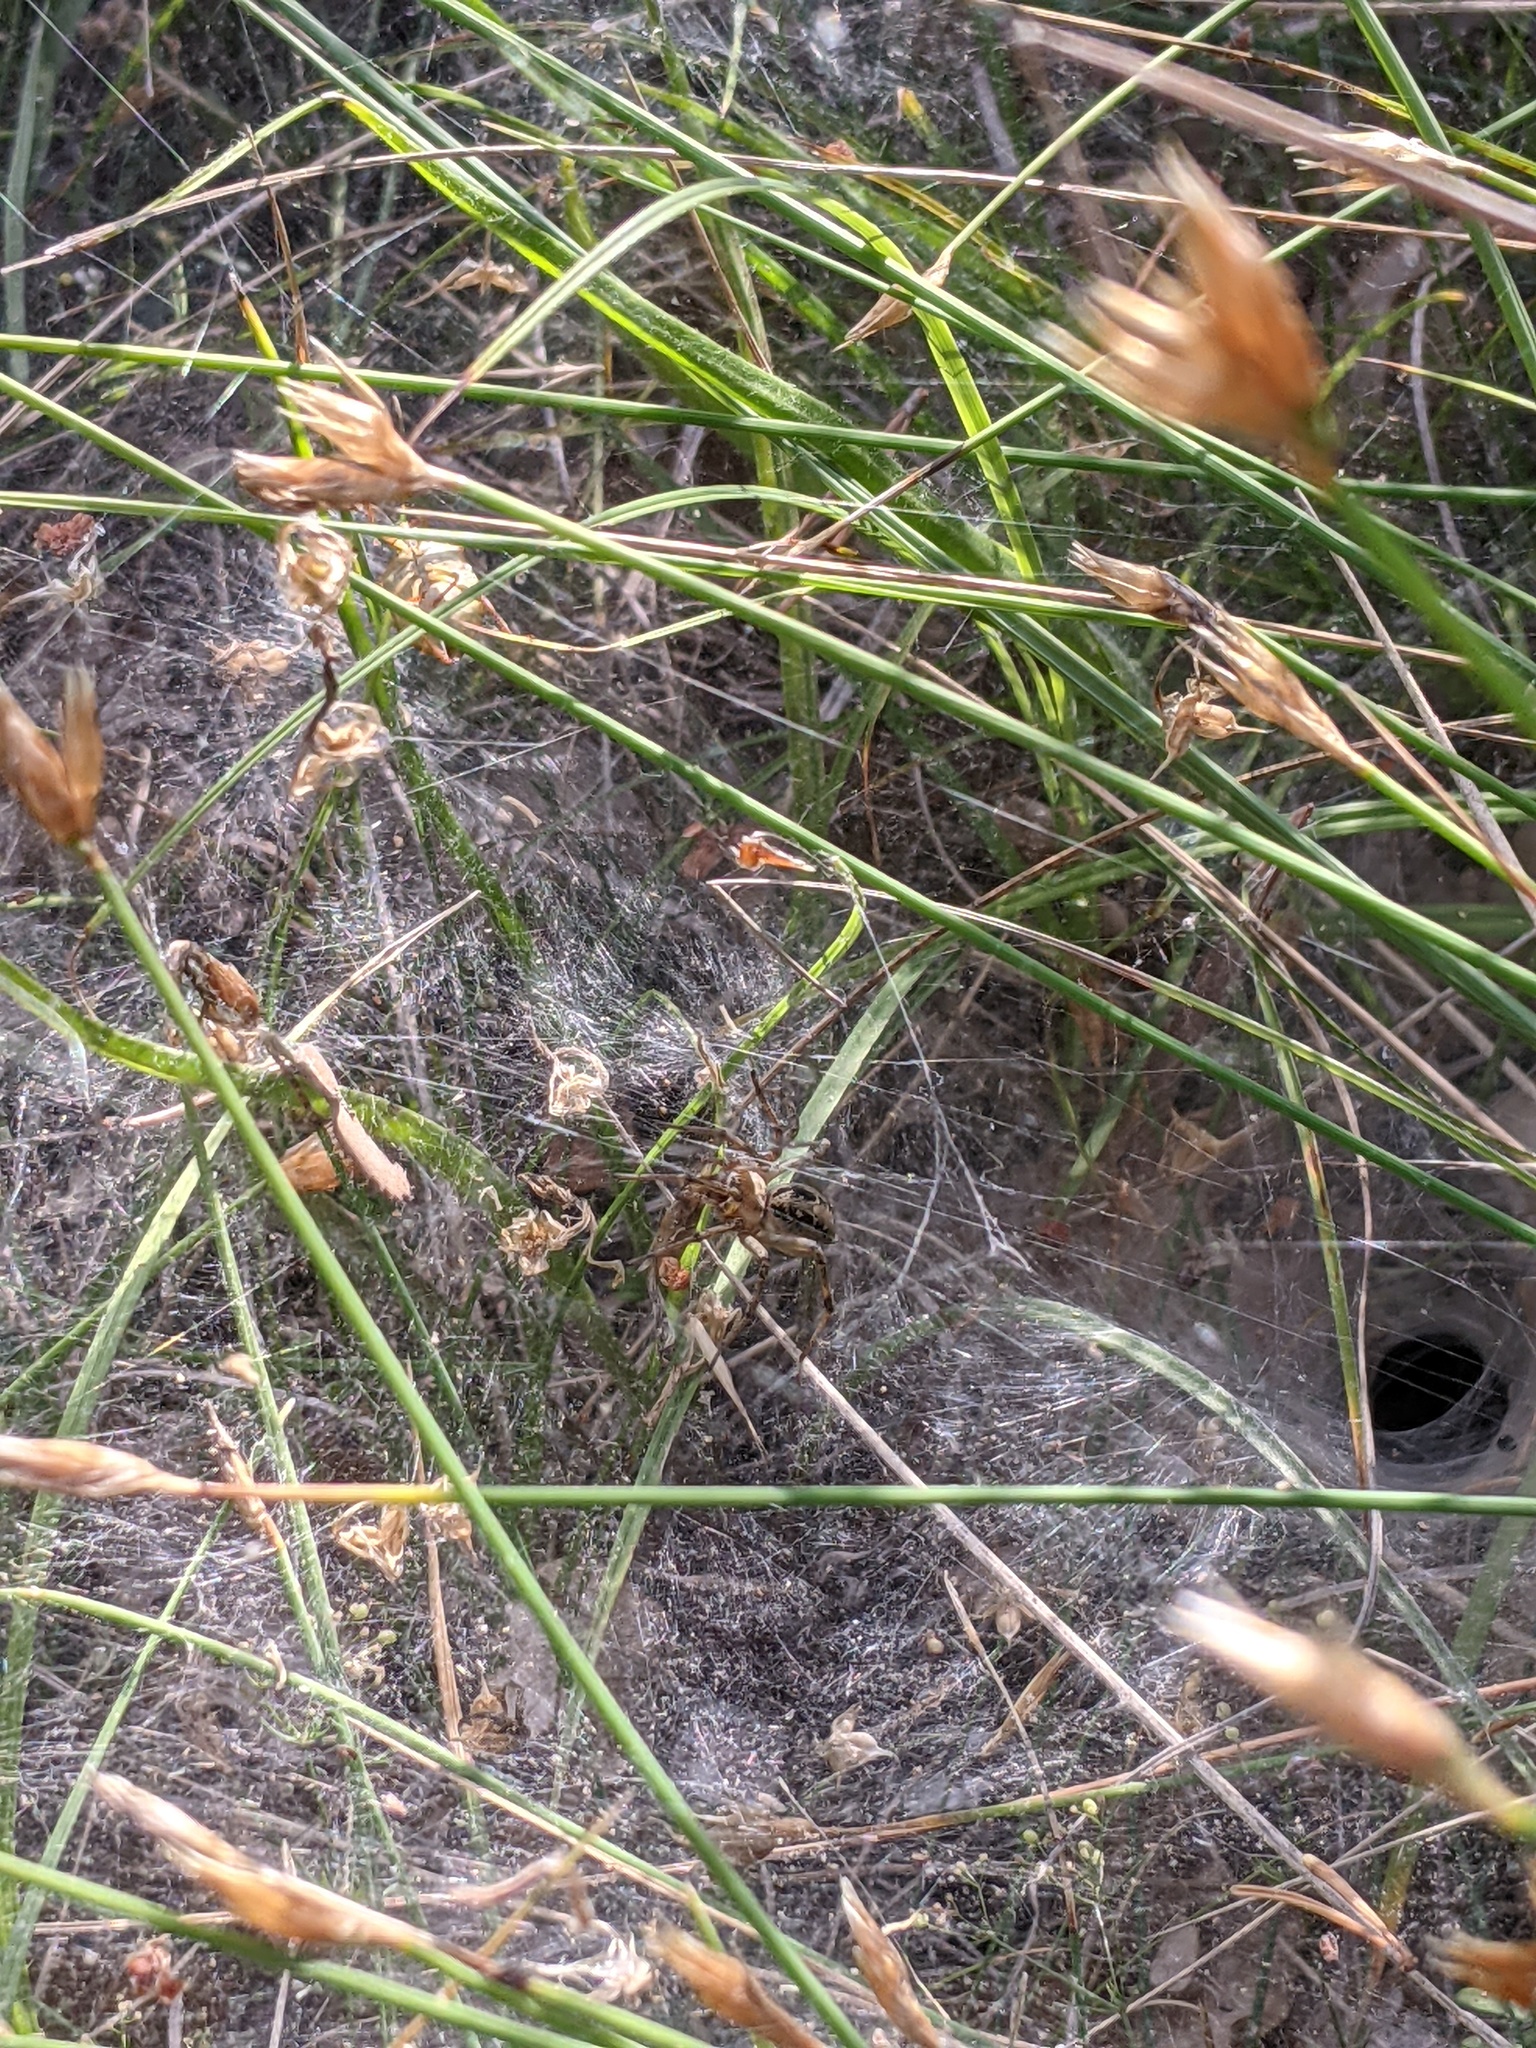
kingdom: Animalia
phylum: Arthropoda
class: Arachnida
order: Araneae
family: Agelenidae
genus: Agelena
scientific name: Agelena labyrinthica
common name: Labyrinth spider
